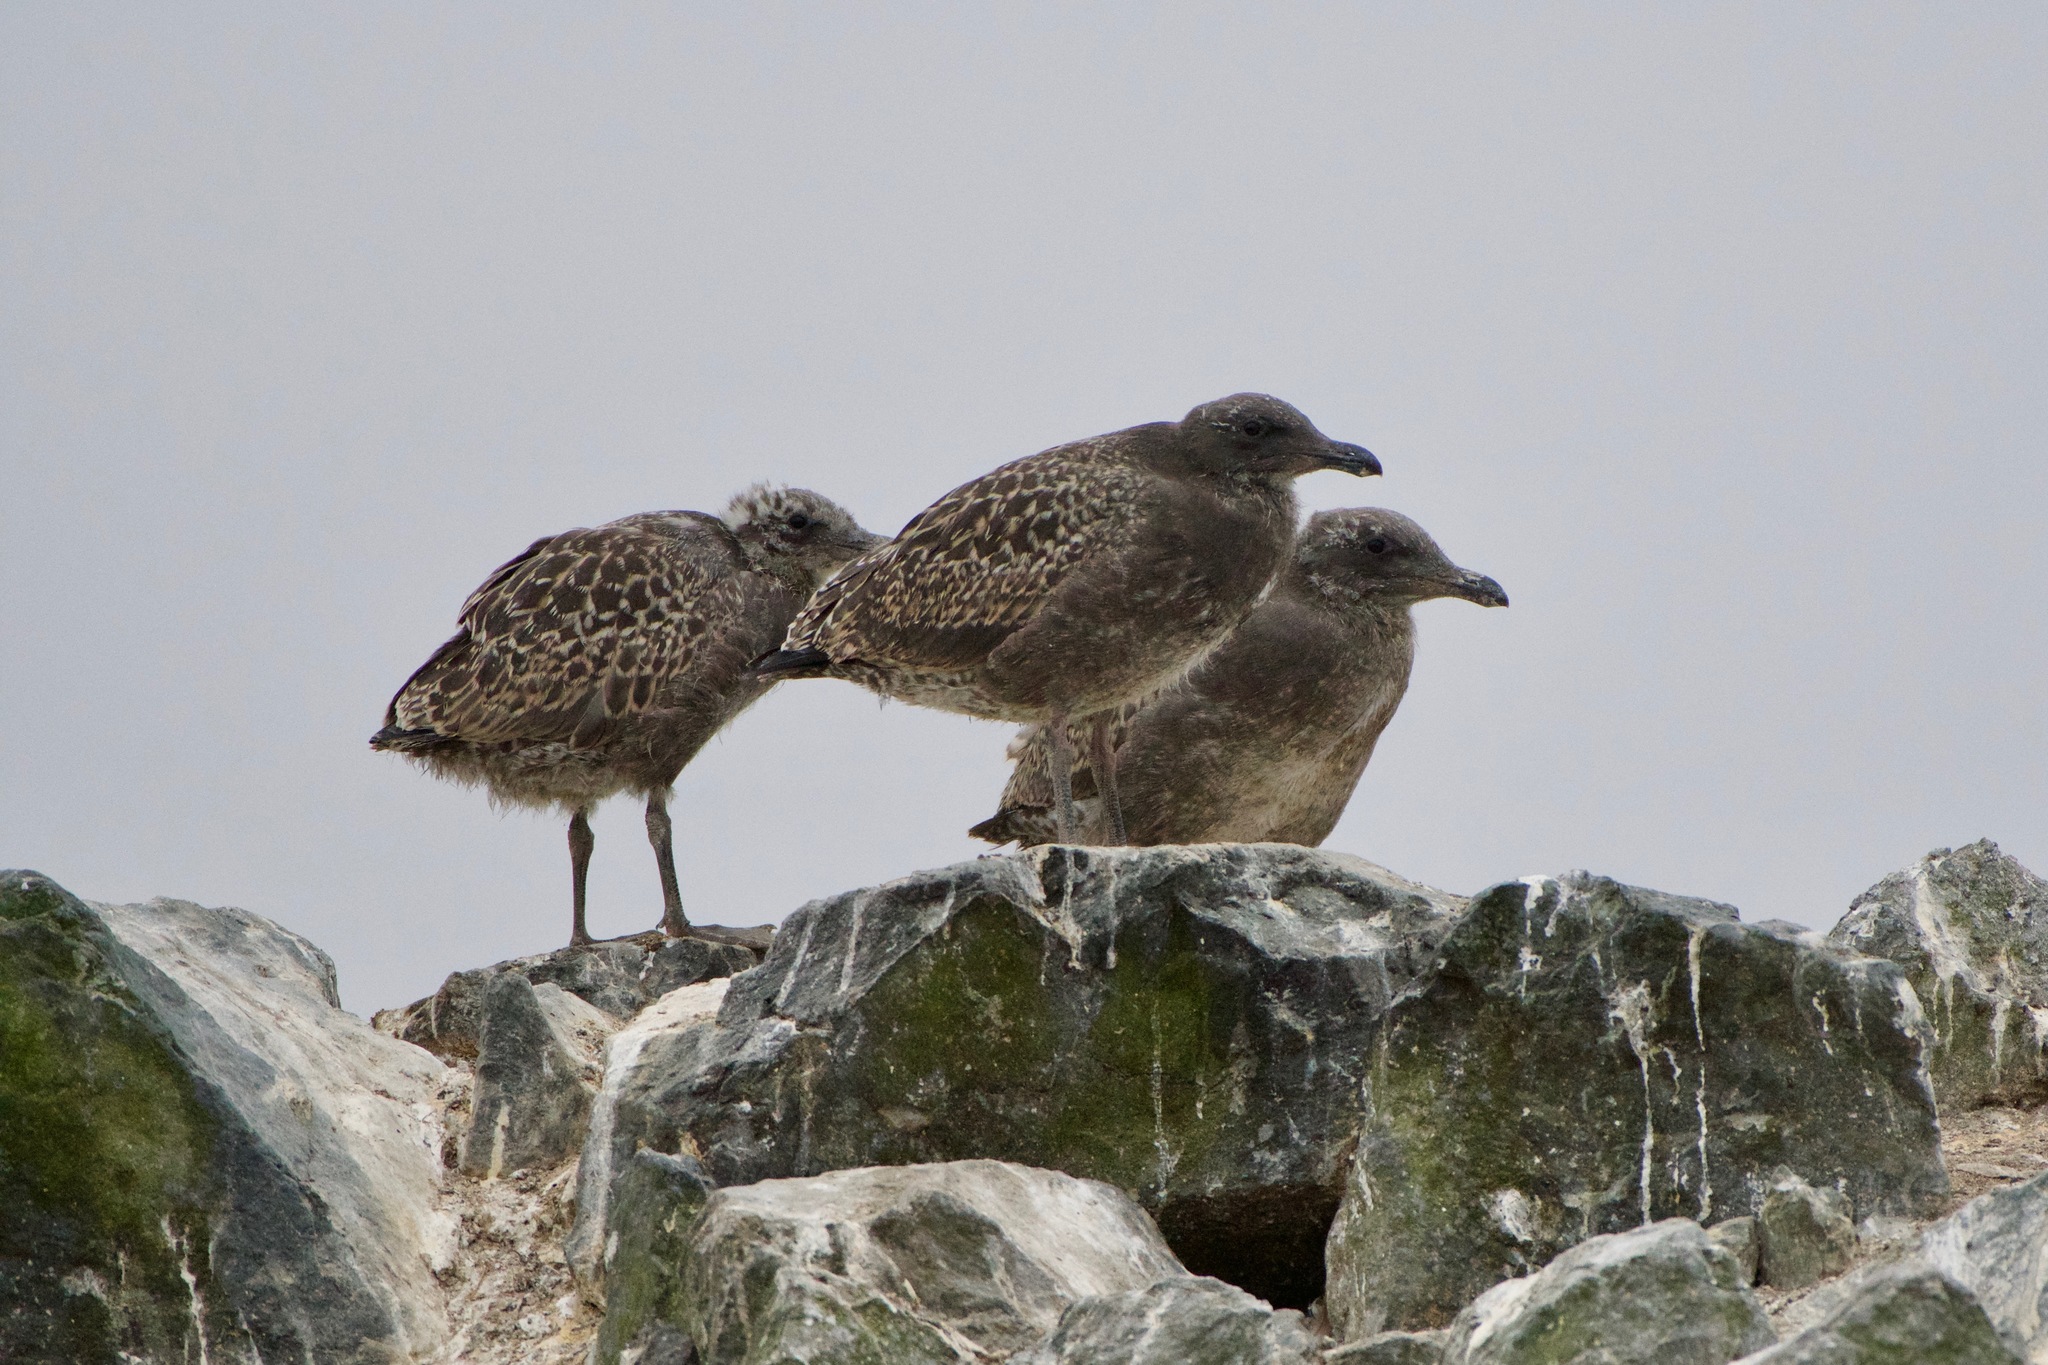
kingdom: Animalia
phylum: Chordata
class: Aves
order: Charadriiformes
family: Laridae
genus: Larus
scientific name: Larus occidentalis
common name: Western gull
